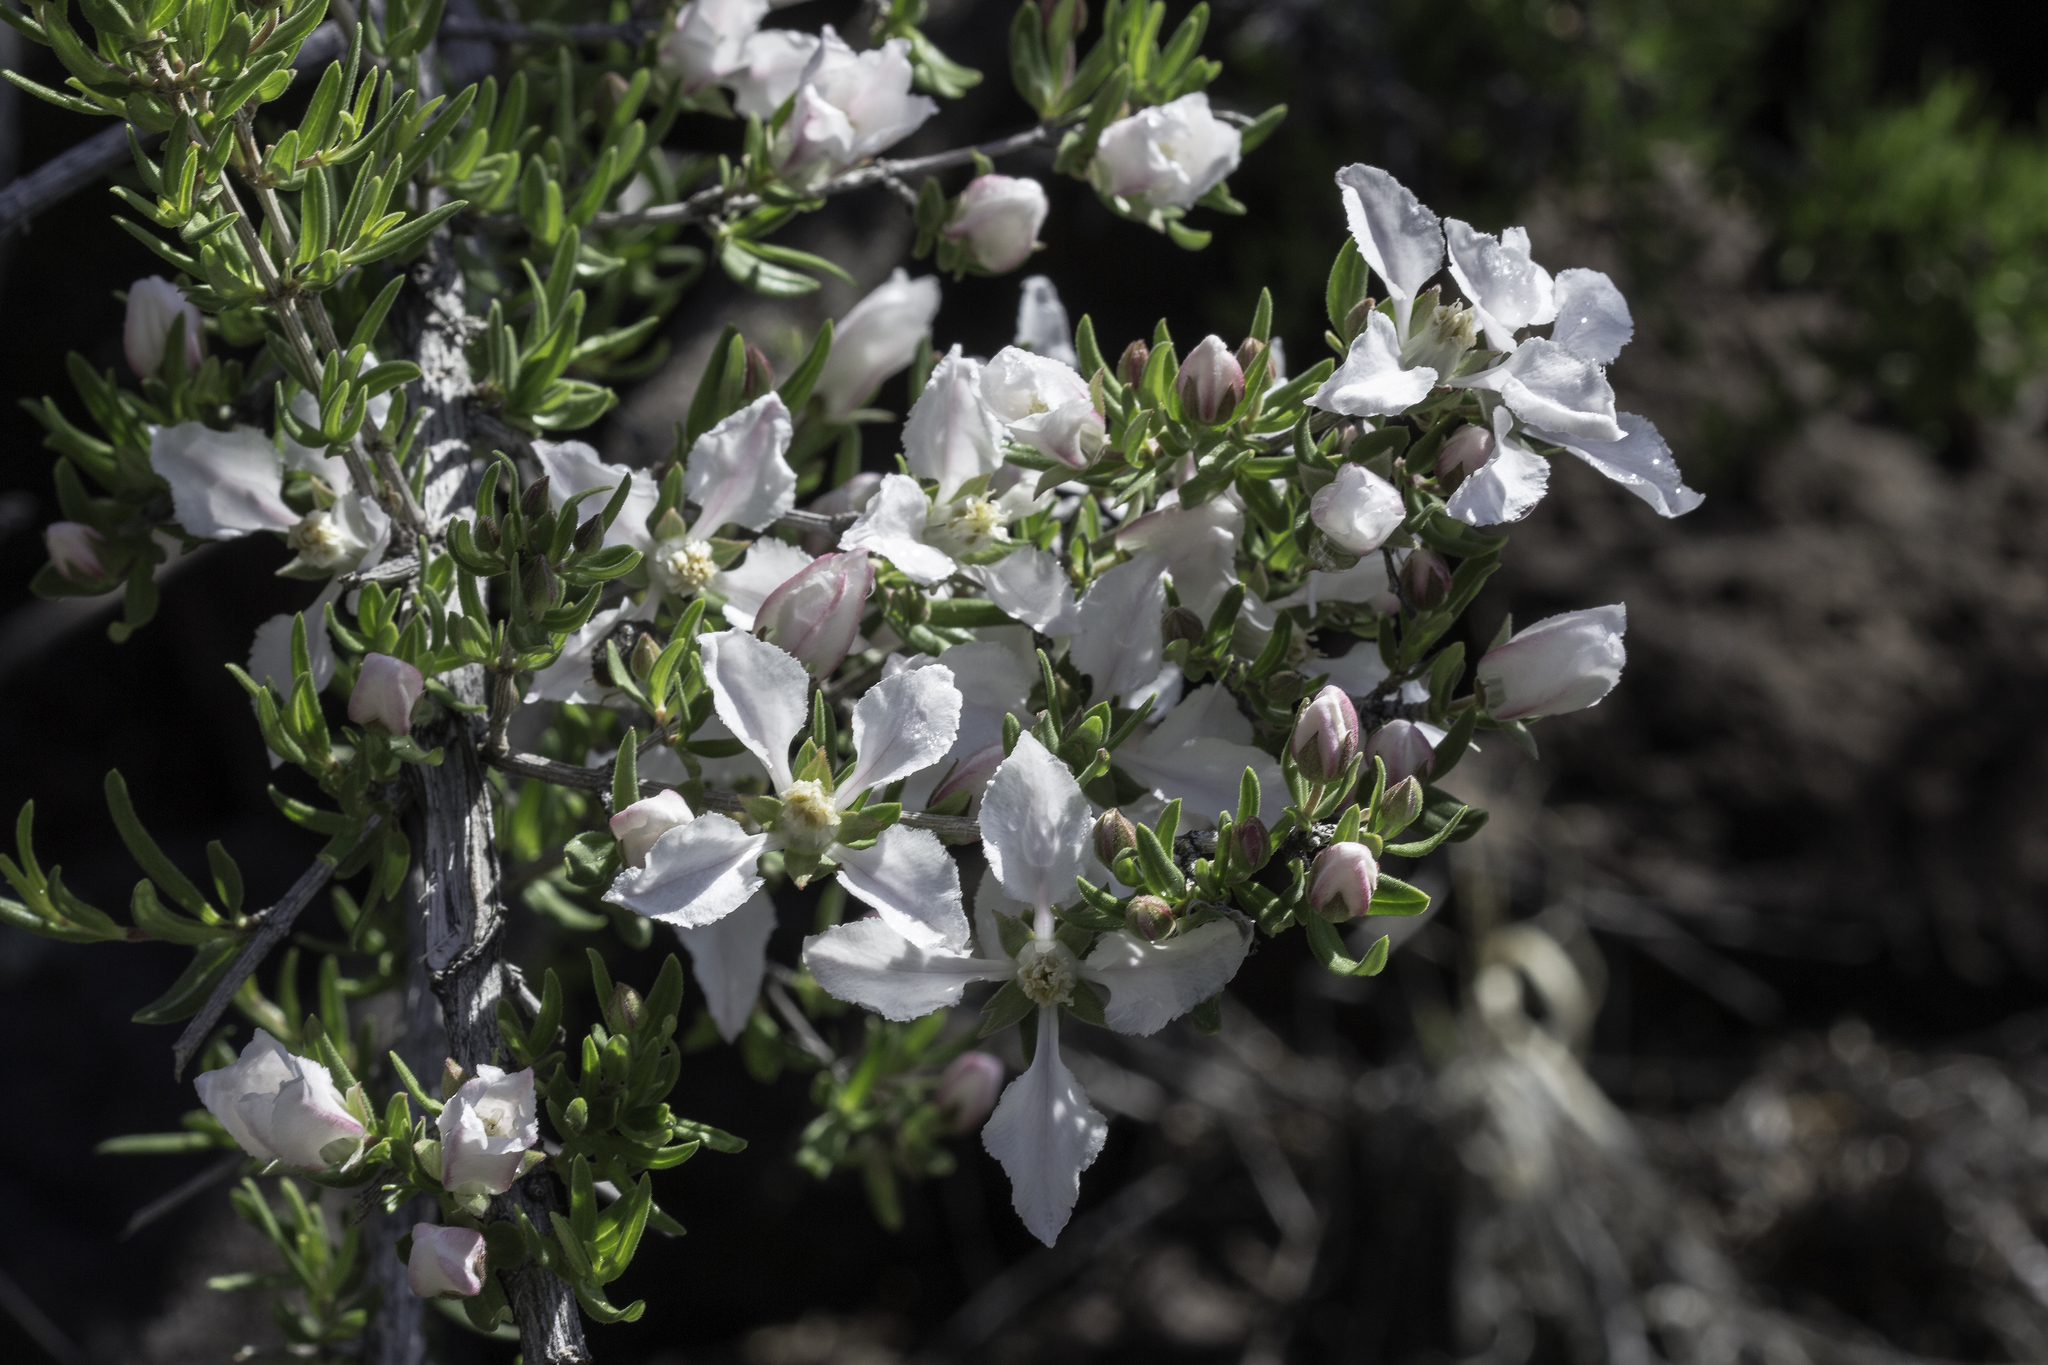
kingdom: Plantae
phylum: Tracheophyta
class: Magnoliopsida
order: Cornales
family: Hydrangeaceae
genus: Fendlera
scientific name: Fendlera rupicola
